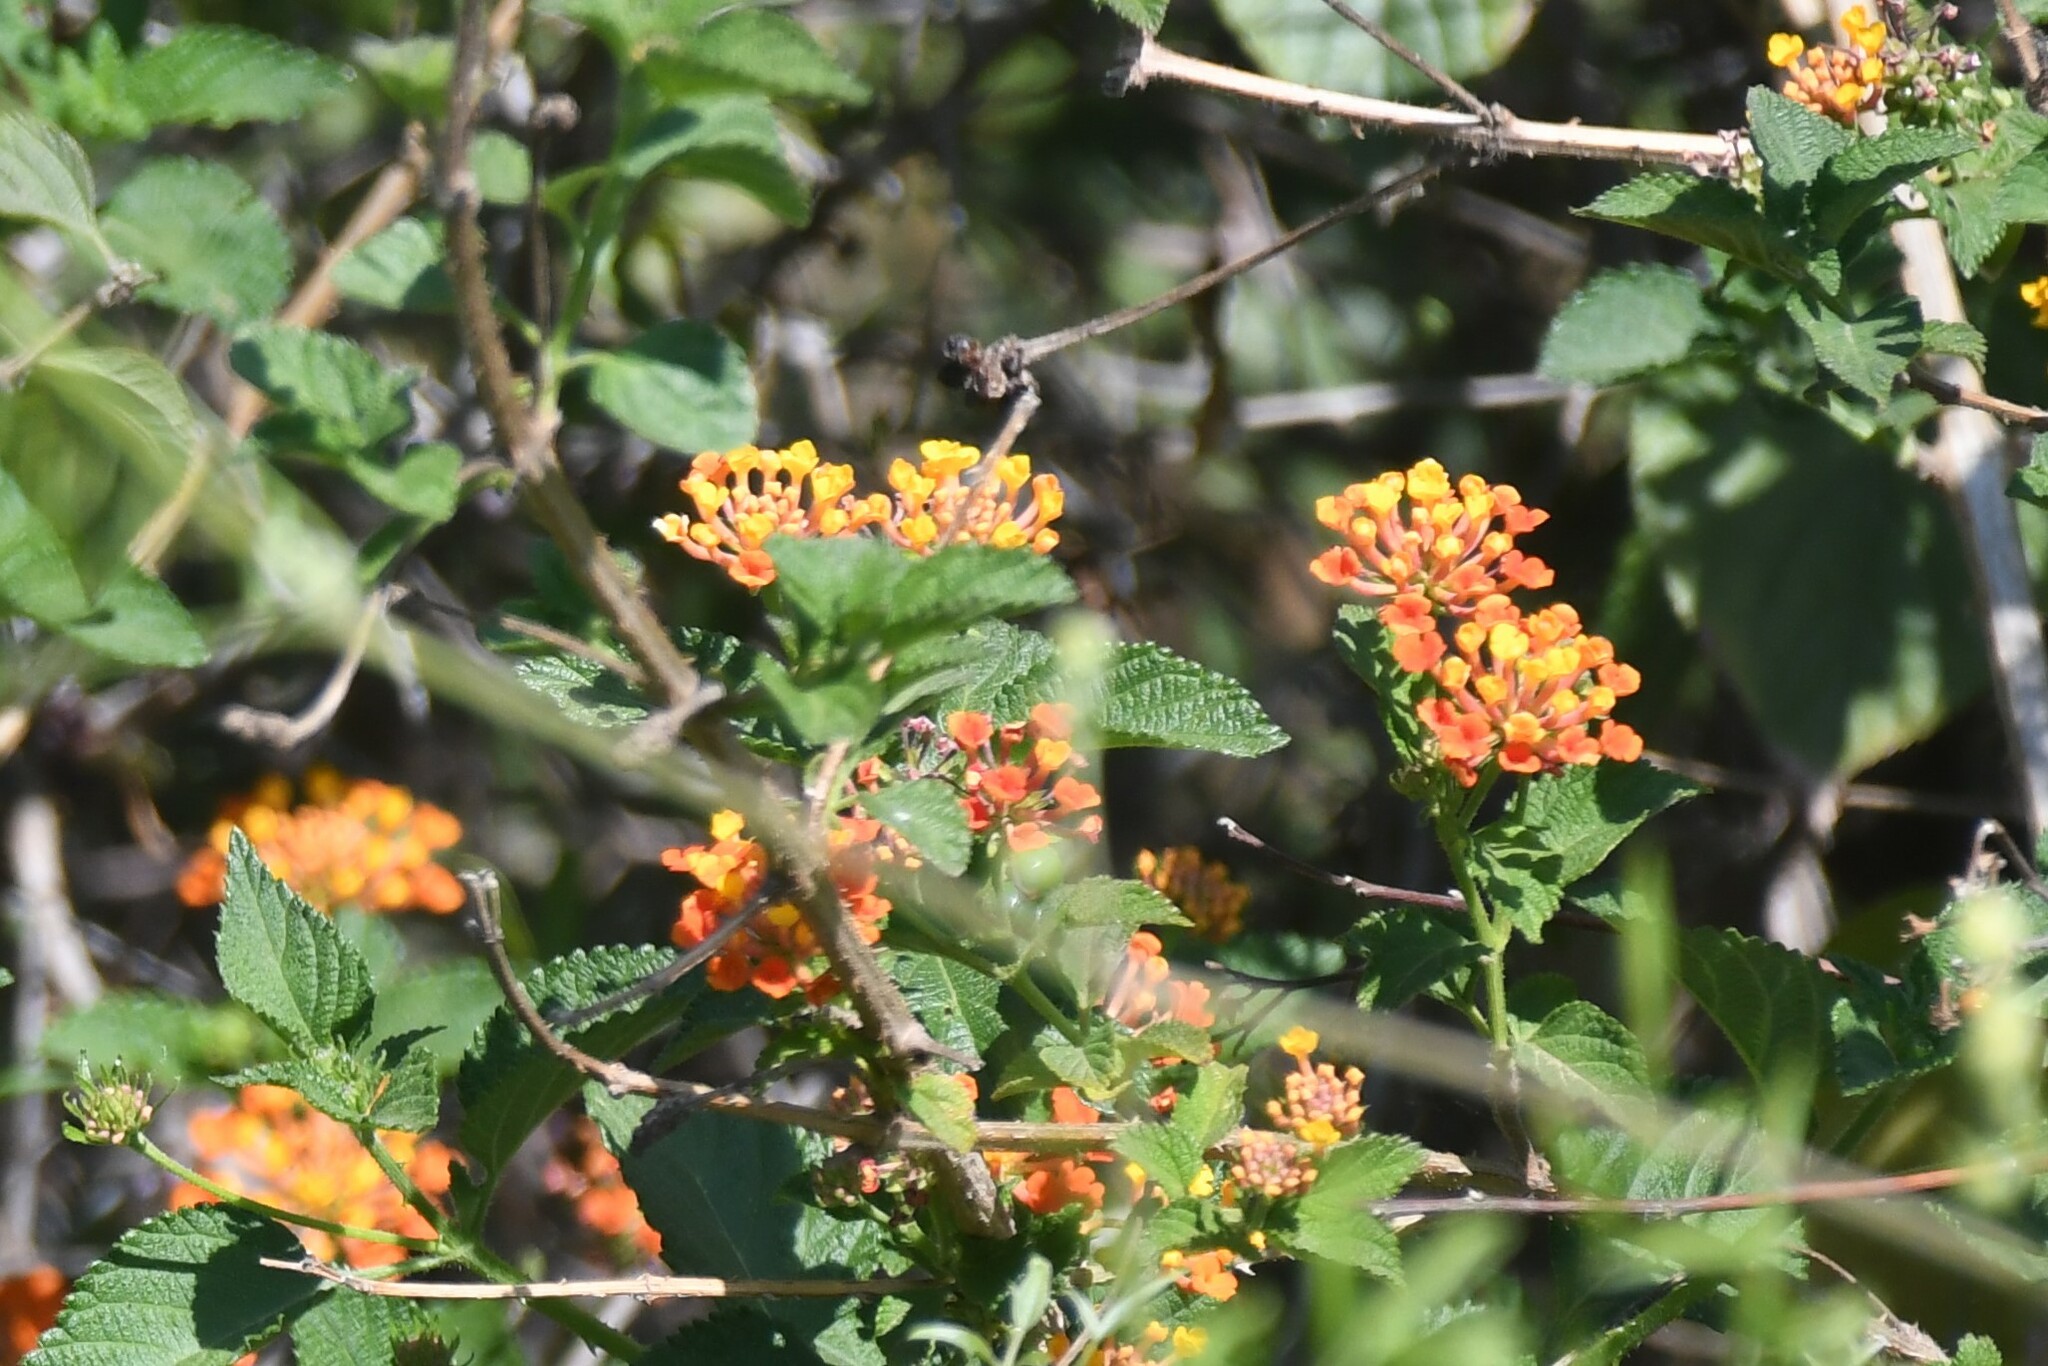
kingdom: Plantae
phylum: Tracheophyta
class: Magnoliopsida
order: Lamiales
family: Verbenaceae
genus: Lantana
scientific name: Lantana camara
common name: Lantana
